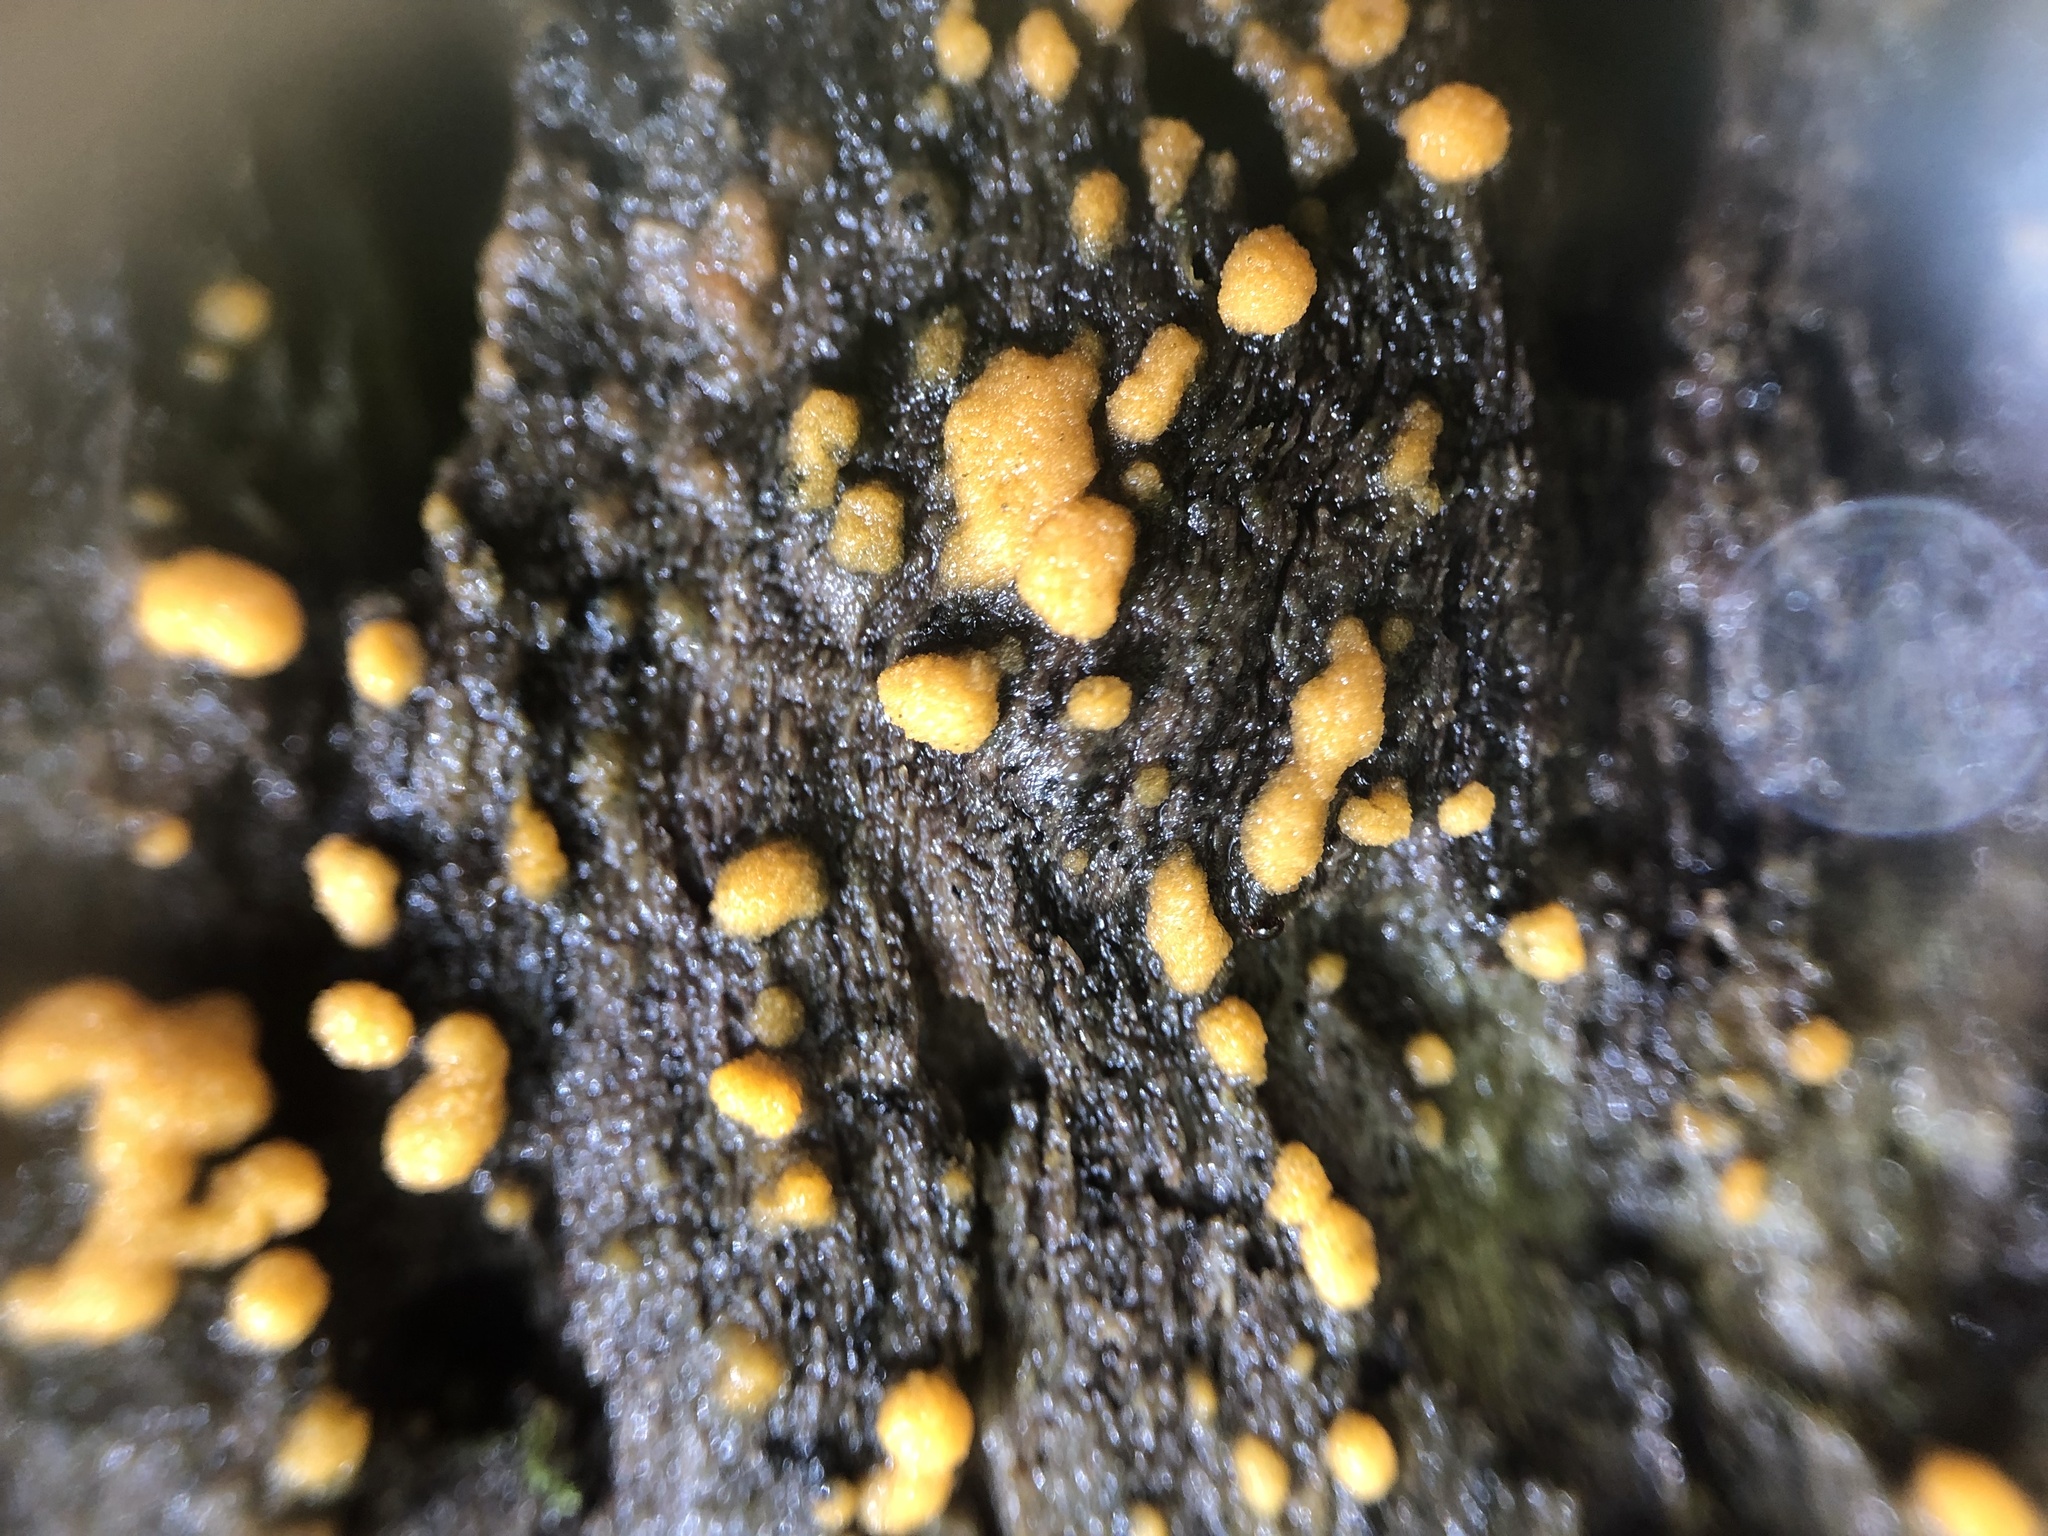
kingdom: Fungi
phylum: Ascomycota
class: Pezizomycetes
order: Pezizales
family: Pyronemataceae
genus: Sphaerosporium
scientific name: Sphaerosporium lignatile
